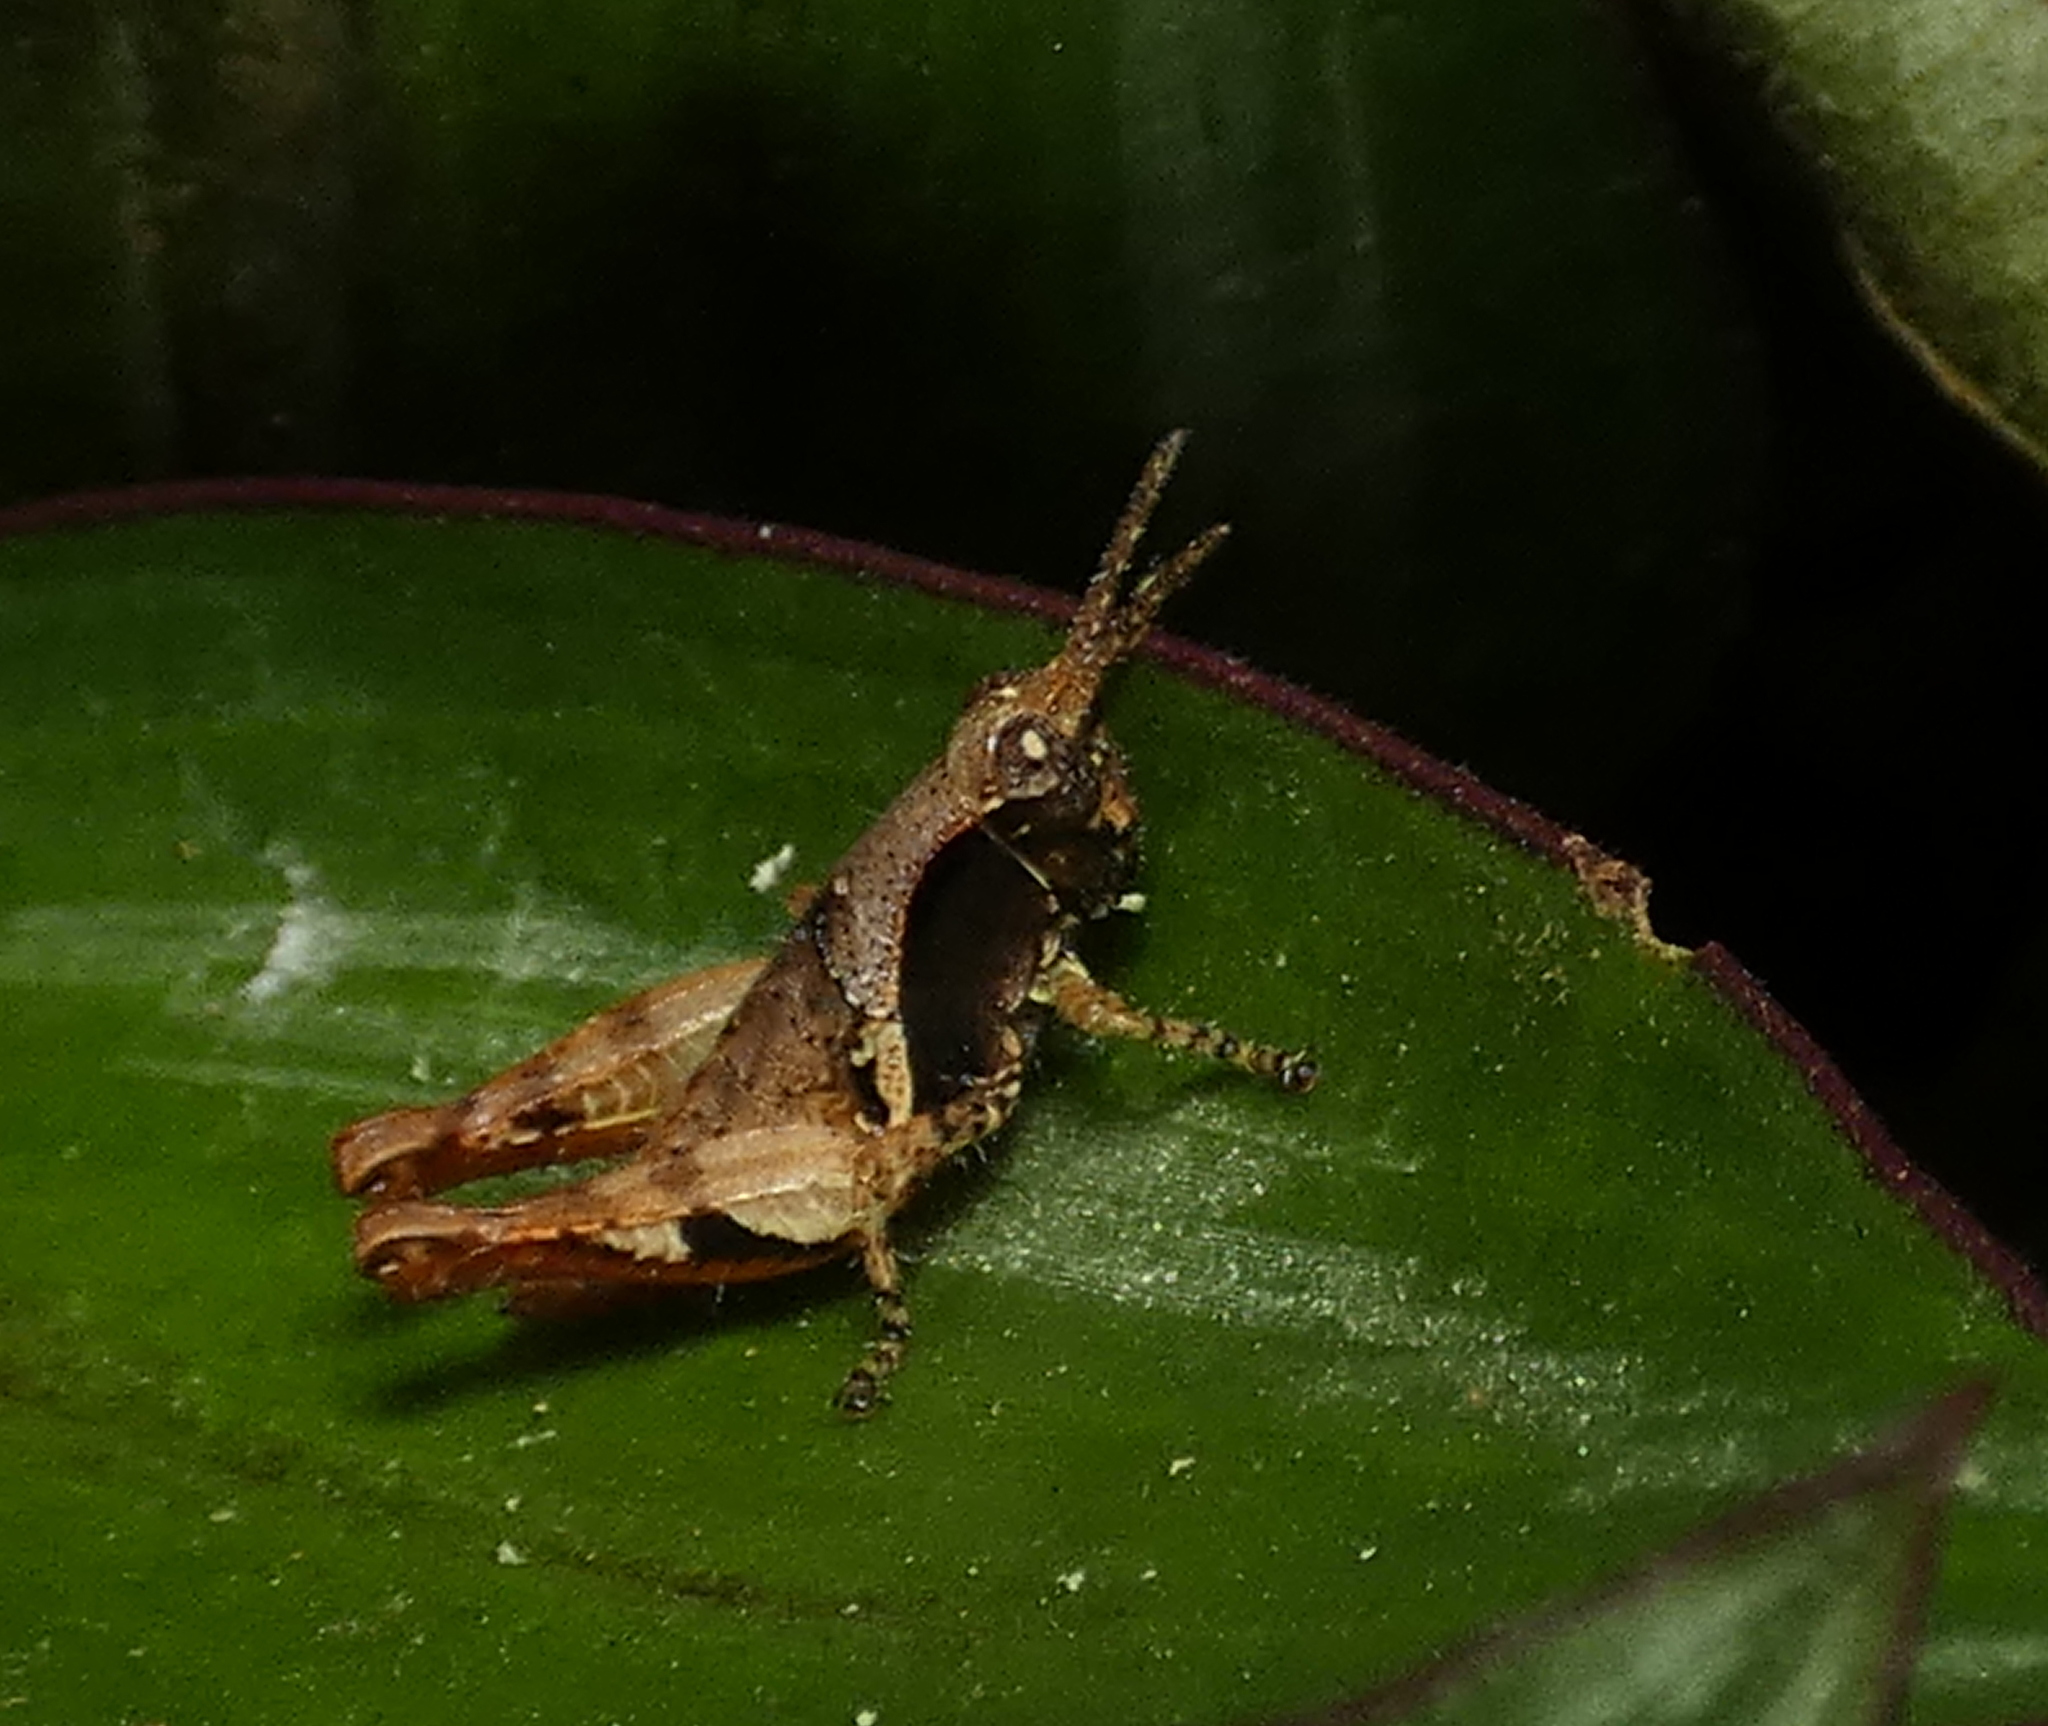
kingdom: Animalia
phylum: Arthropoda
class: Insecta
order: Orthoptera
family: Acrididae
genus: Eujivarus
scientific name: Eujivarus meridionalis
